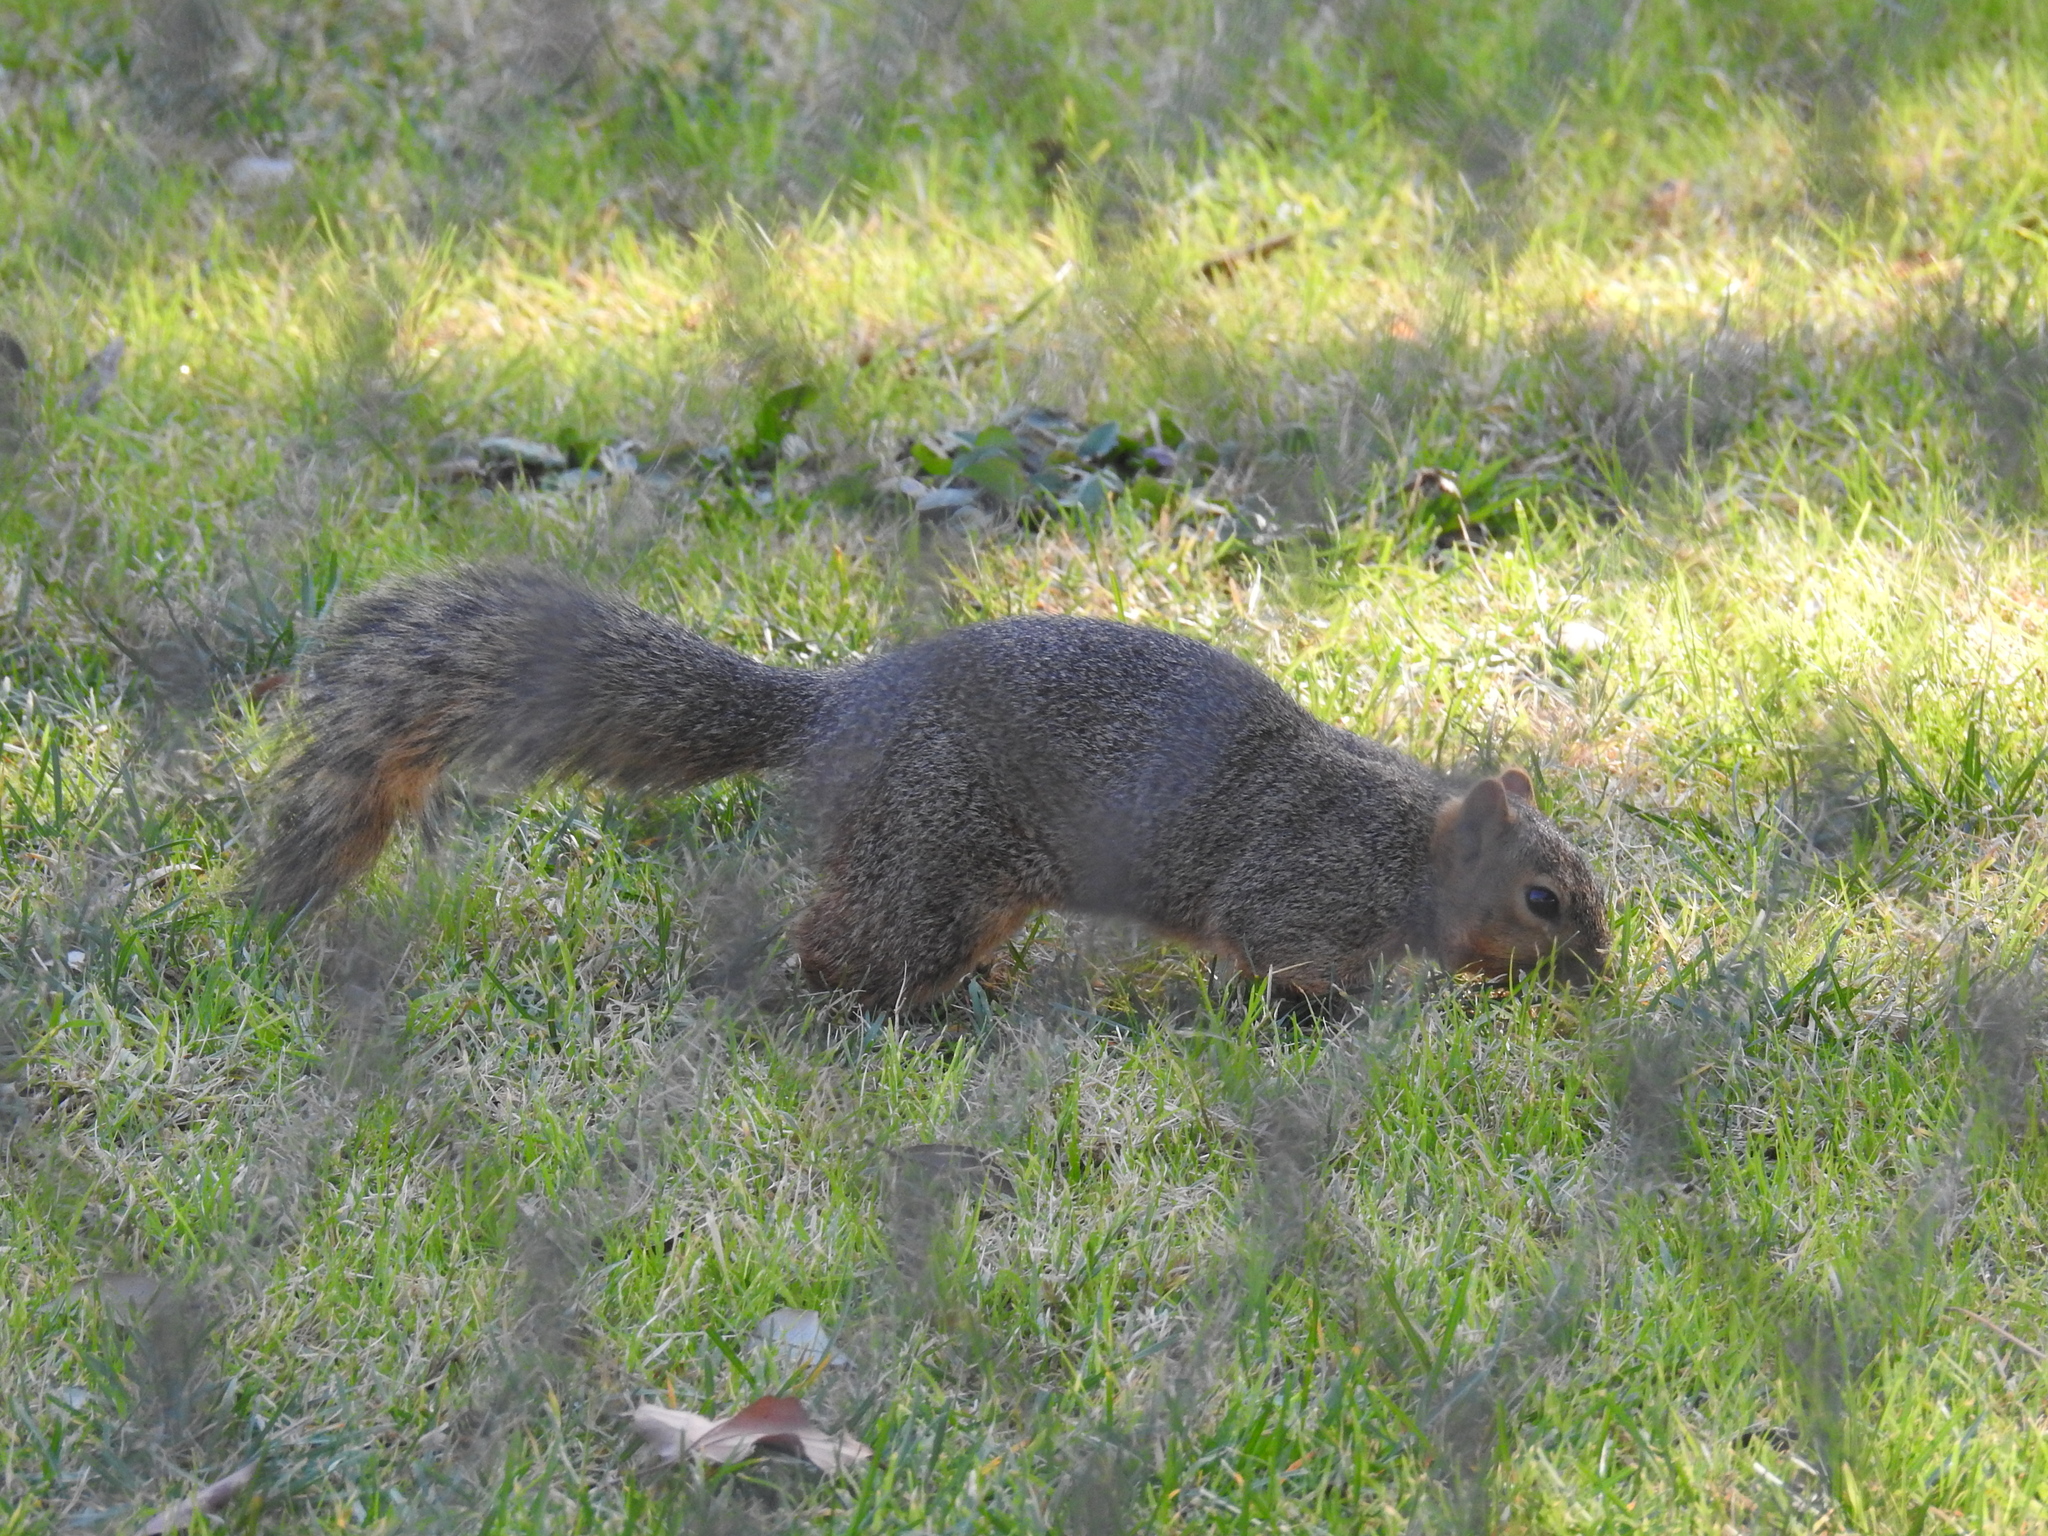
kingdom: Animalia
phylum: Chordata
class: Mammalia
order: Rodentia
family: Sciuridae
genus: Sciurus
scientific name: Sciurus niger
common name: Fox squirrel
